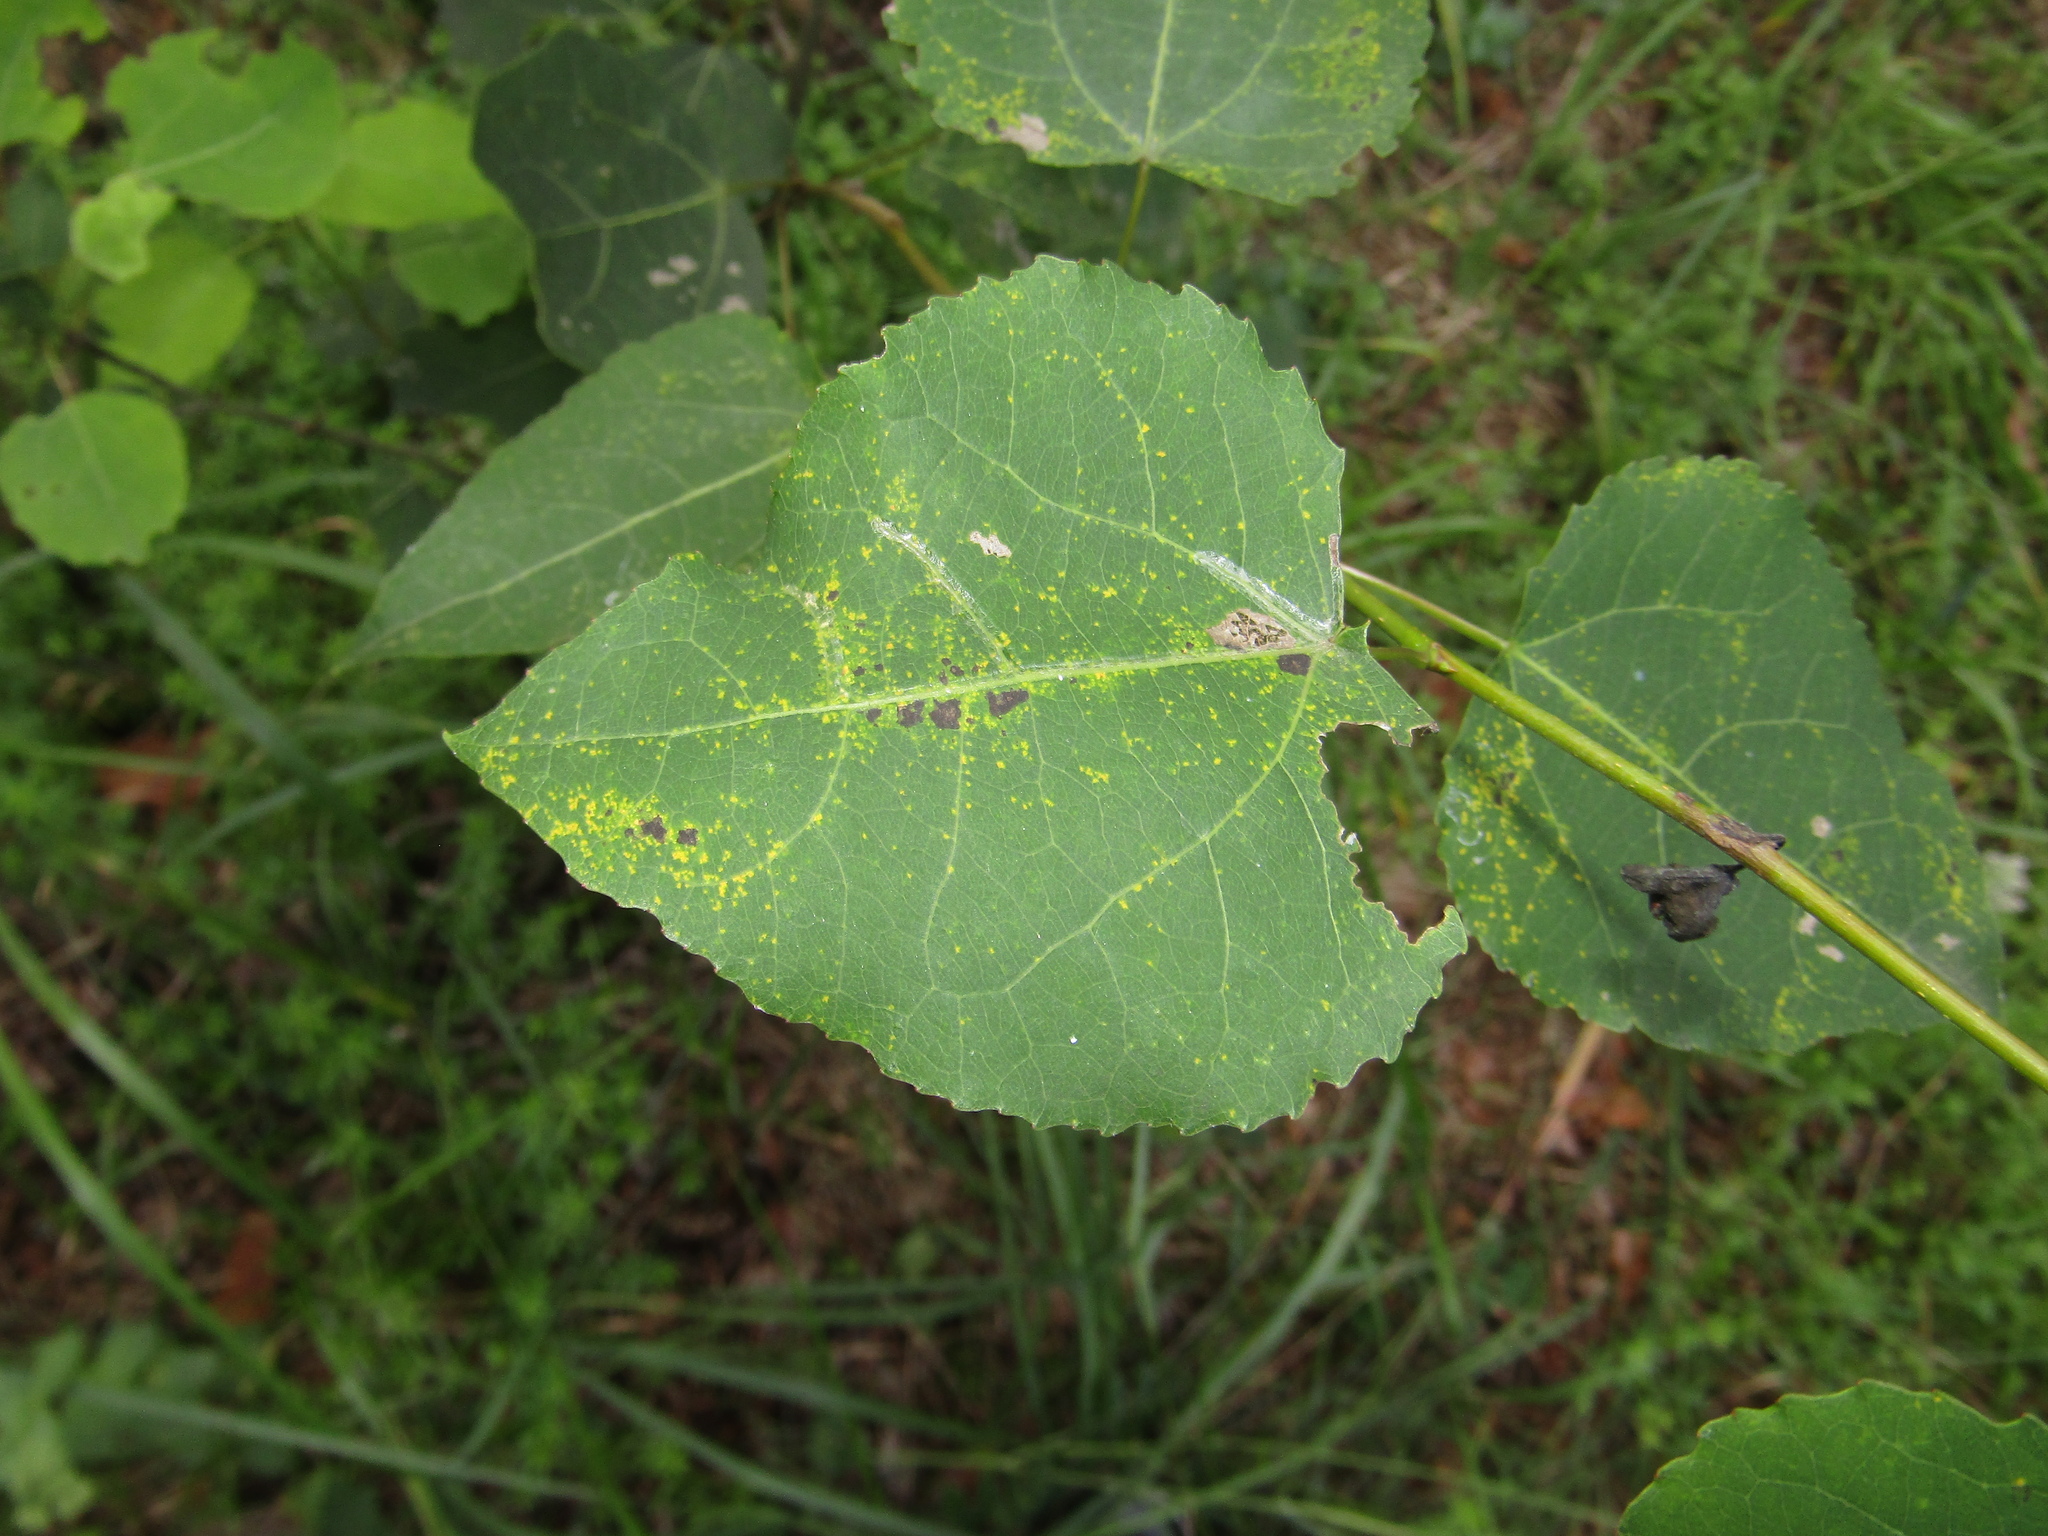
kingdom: Plantae
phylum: Tracheophyta
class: Magnoliopsida
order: Malpighiales
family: Salicaceae
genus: Populus
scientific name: Populus tremula
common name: European aspen
